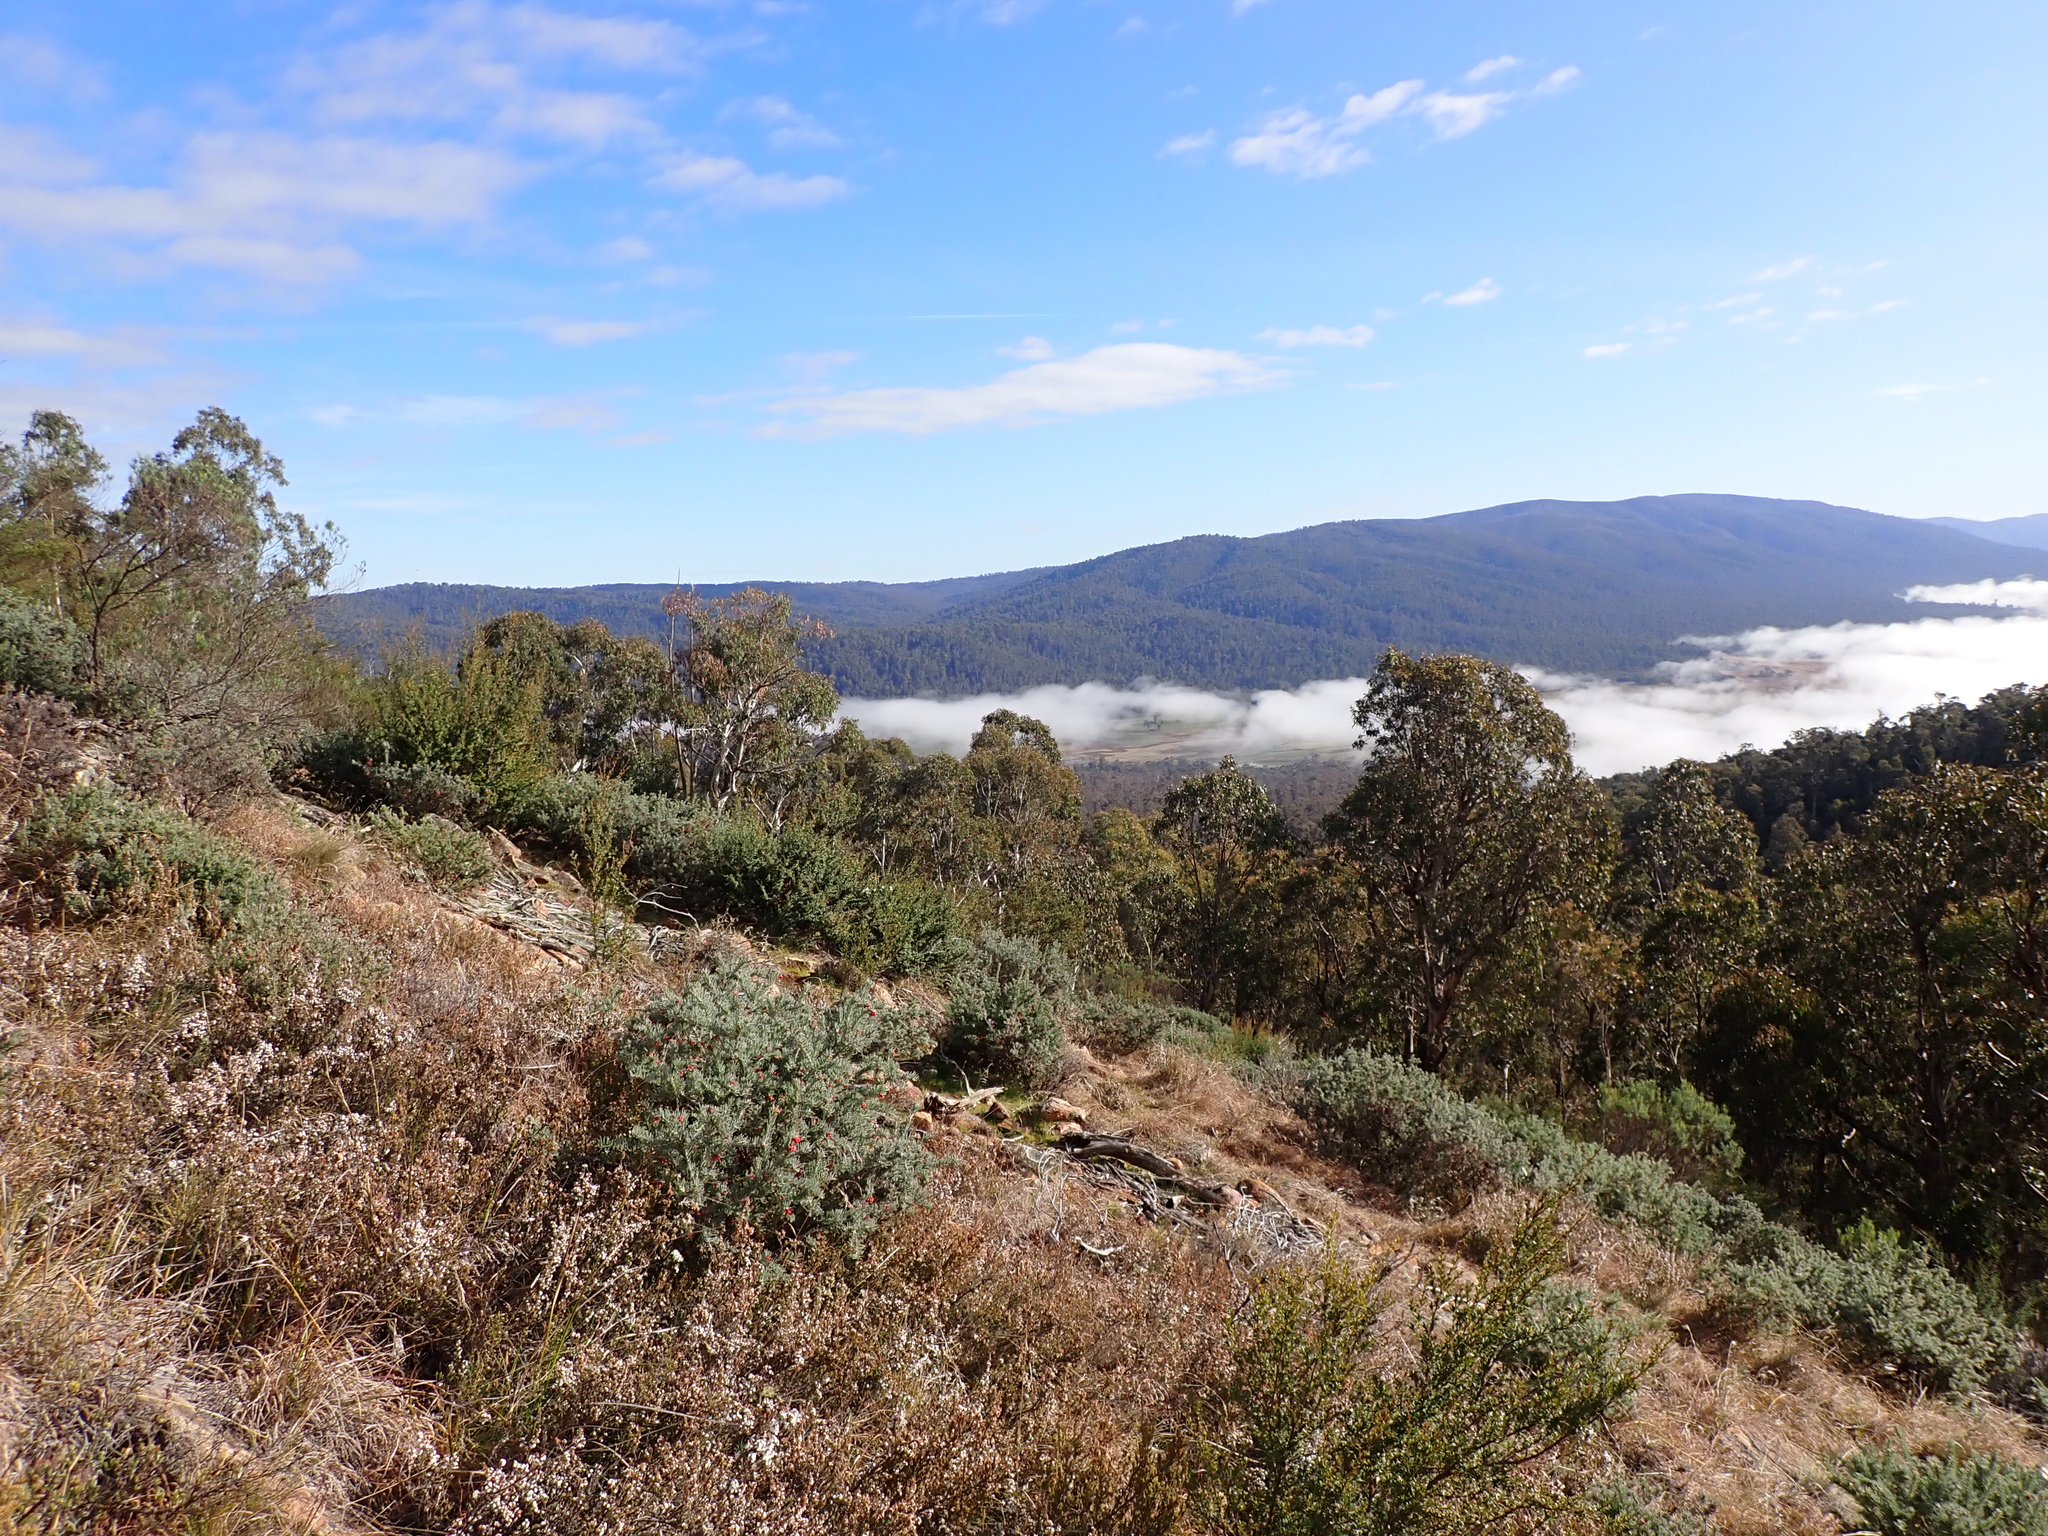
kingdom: Plantae
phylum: Tracheophyta
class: Magnoliopsida
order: Proteales
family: Proteaceae
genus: Grevillea
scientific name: Grevillea lanigera
